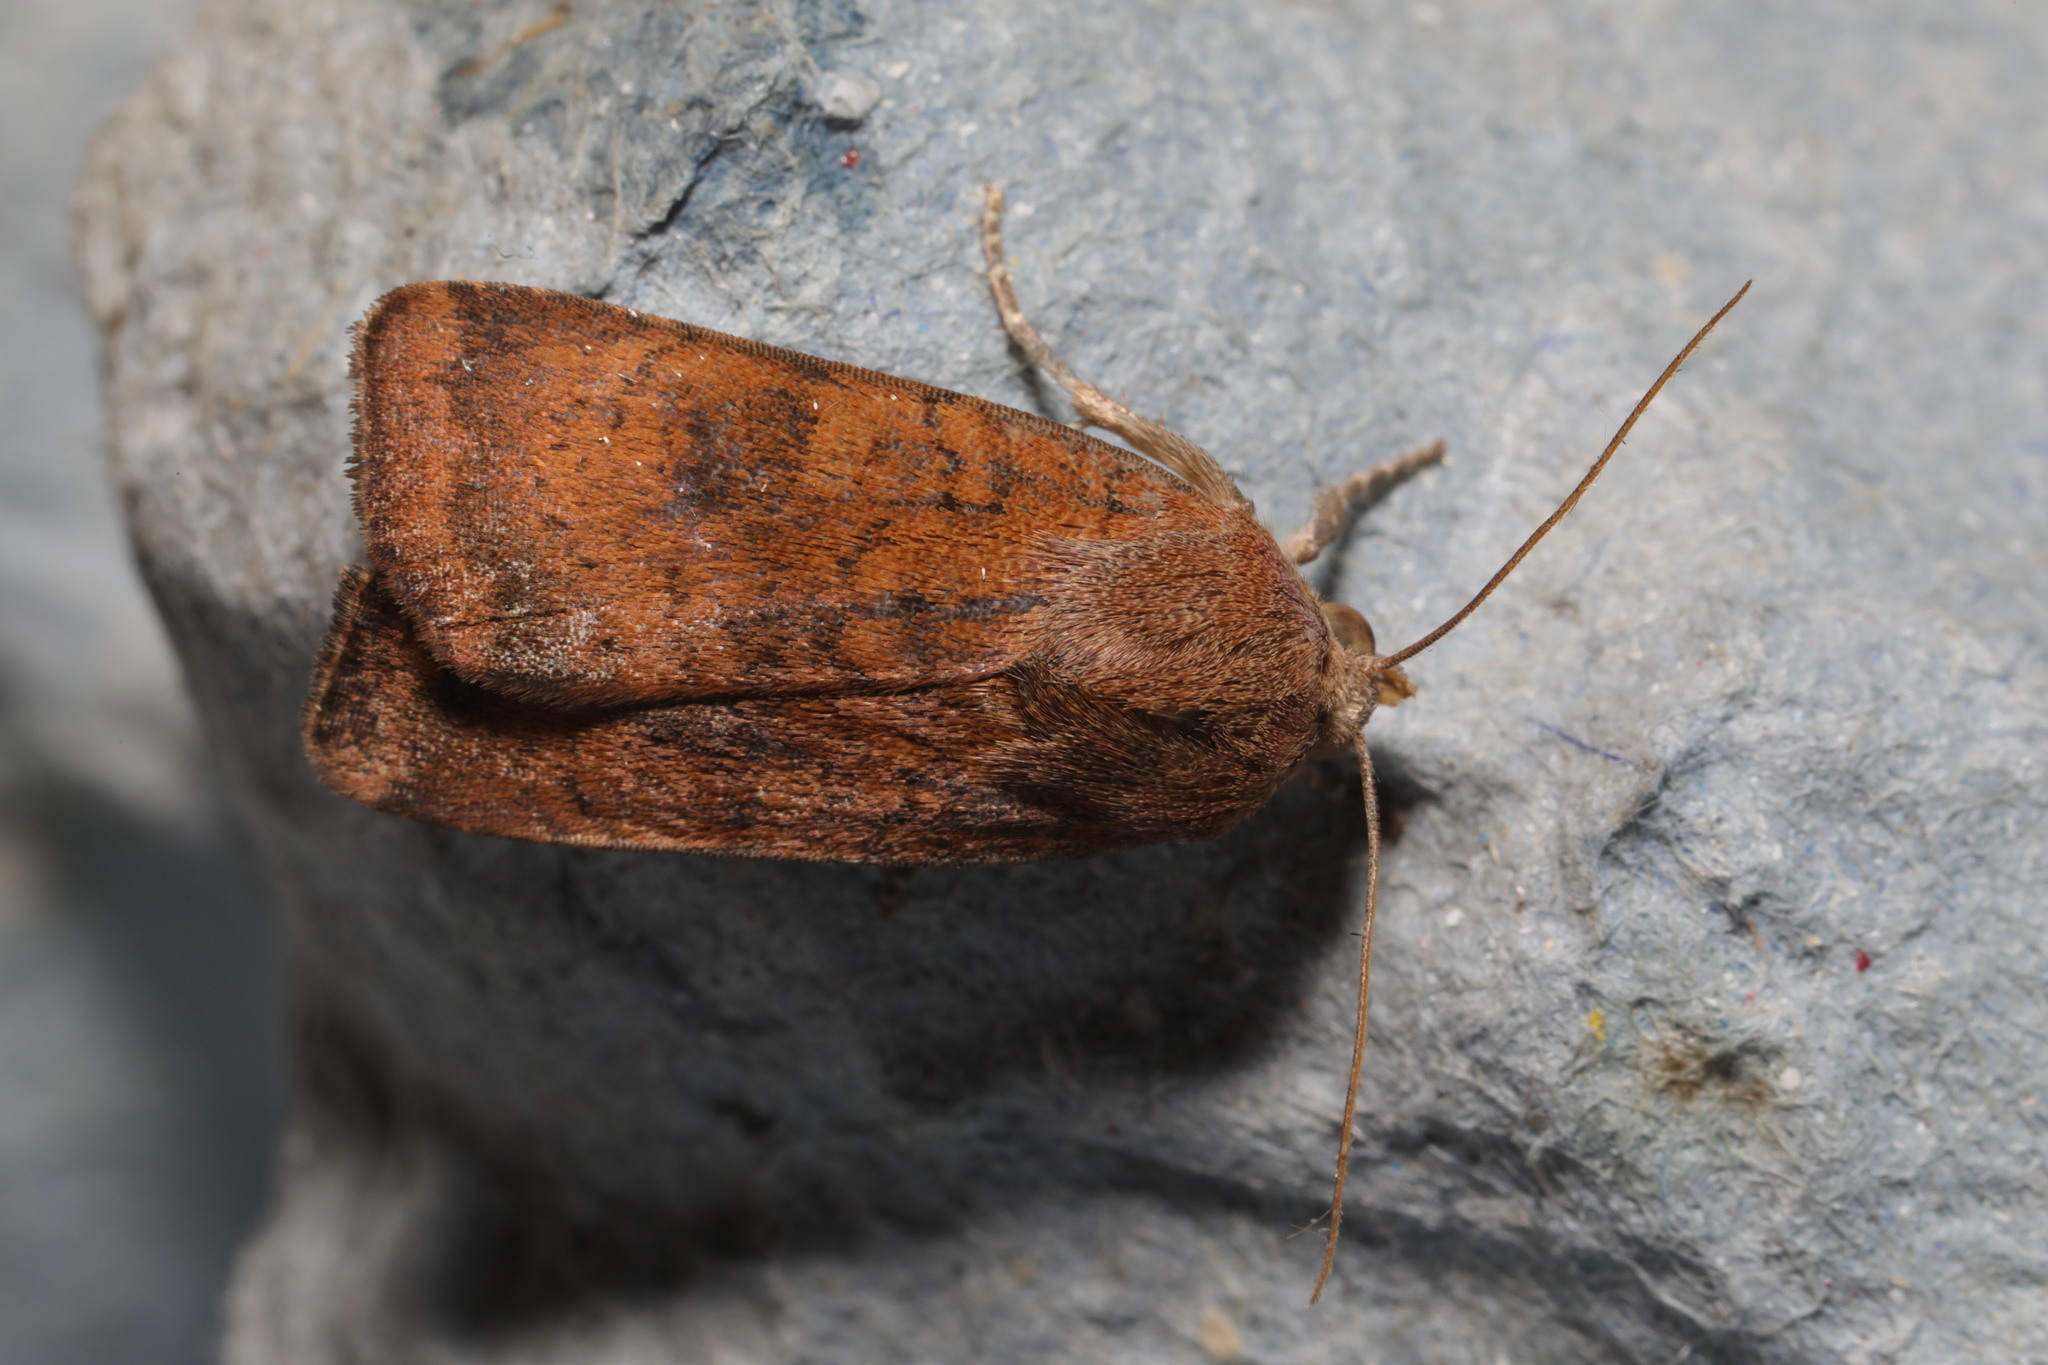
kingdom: Animalia
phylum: Arthropoda
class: Insecta
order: Lepidoptera
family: Noctuidae
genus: Noctua
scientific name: Noctua interjecta
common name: Least yellow underwing
